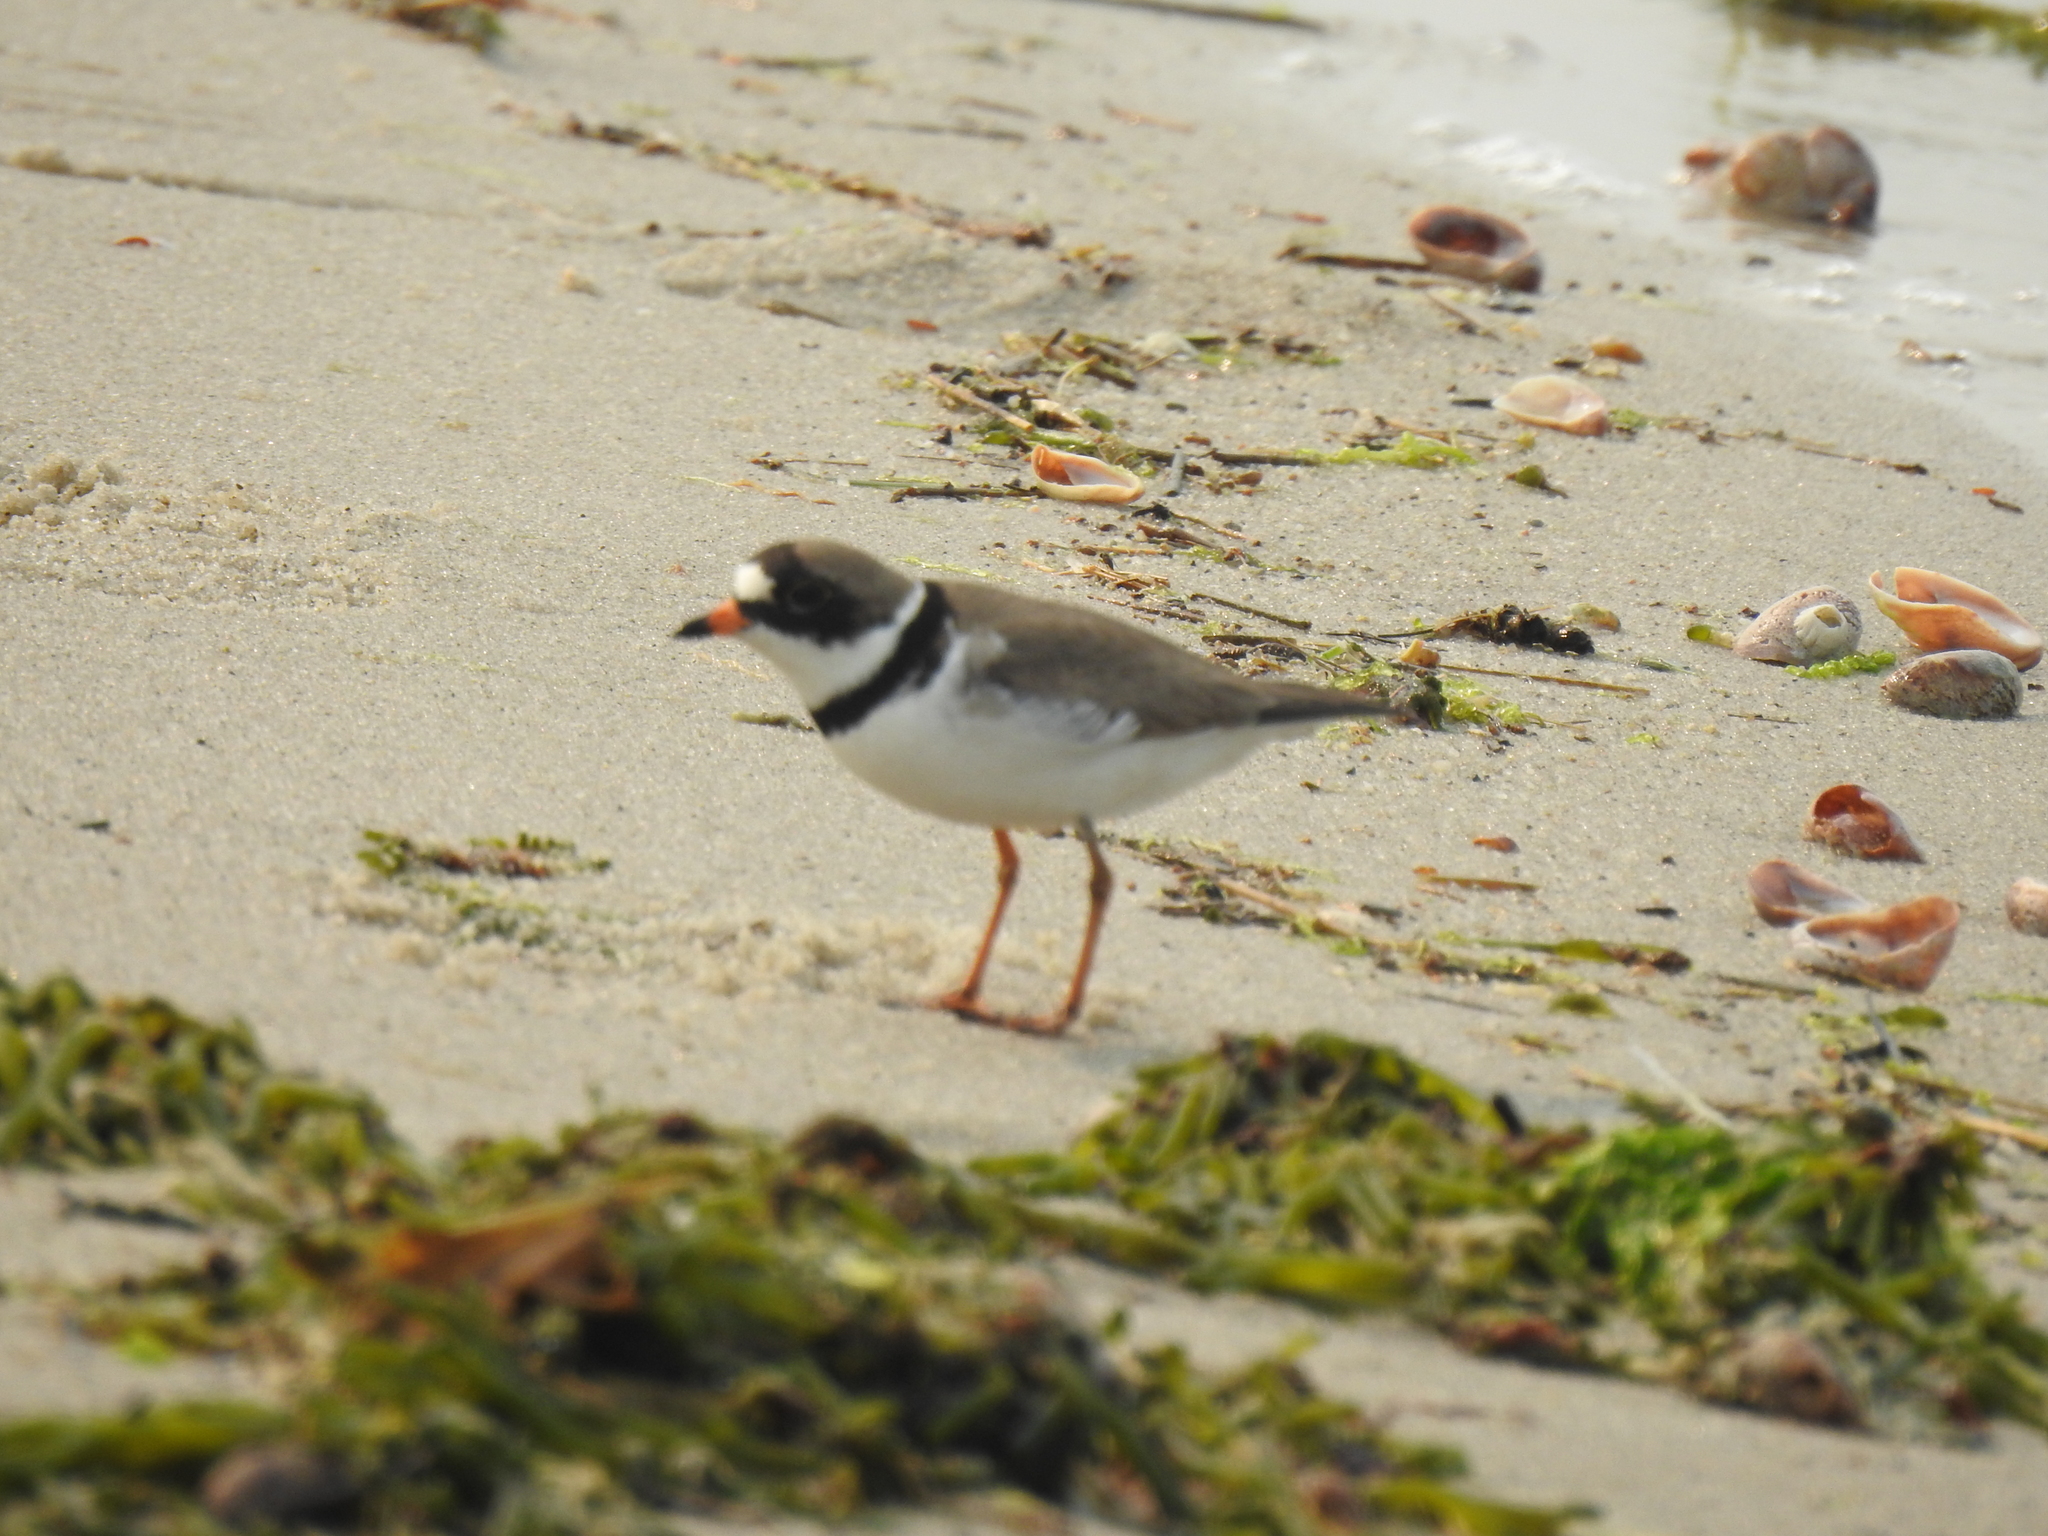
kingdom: Animalia
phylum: Chordata
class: Aves
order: Charadriiformes
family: Charadriidae
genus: Charadrius
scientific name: Charadrius semipalmatus
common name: Semipalmated plover
